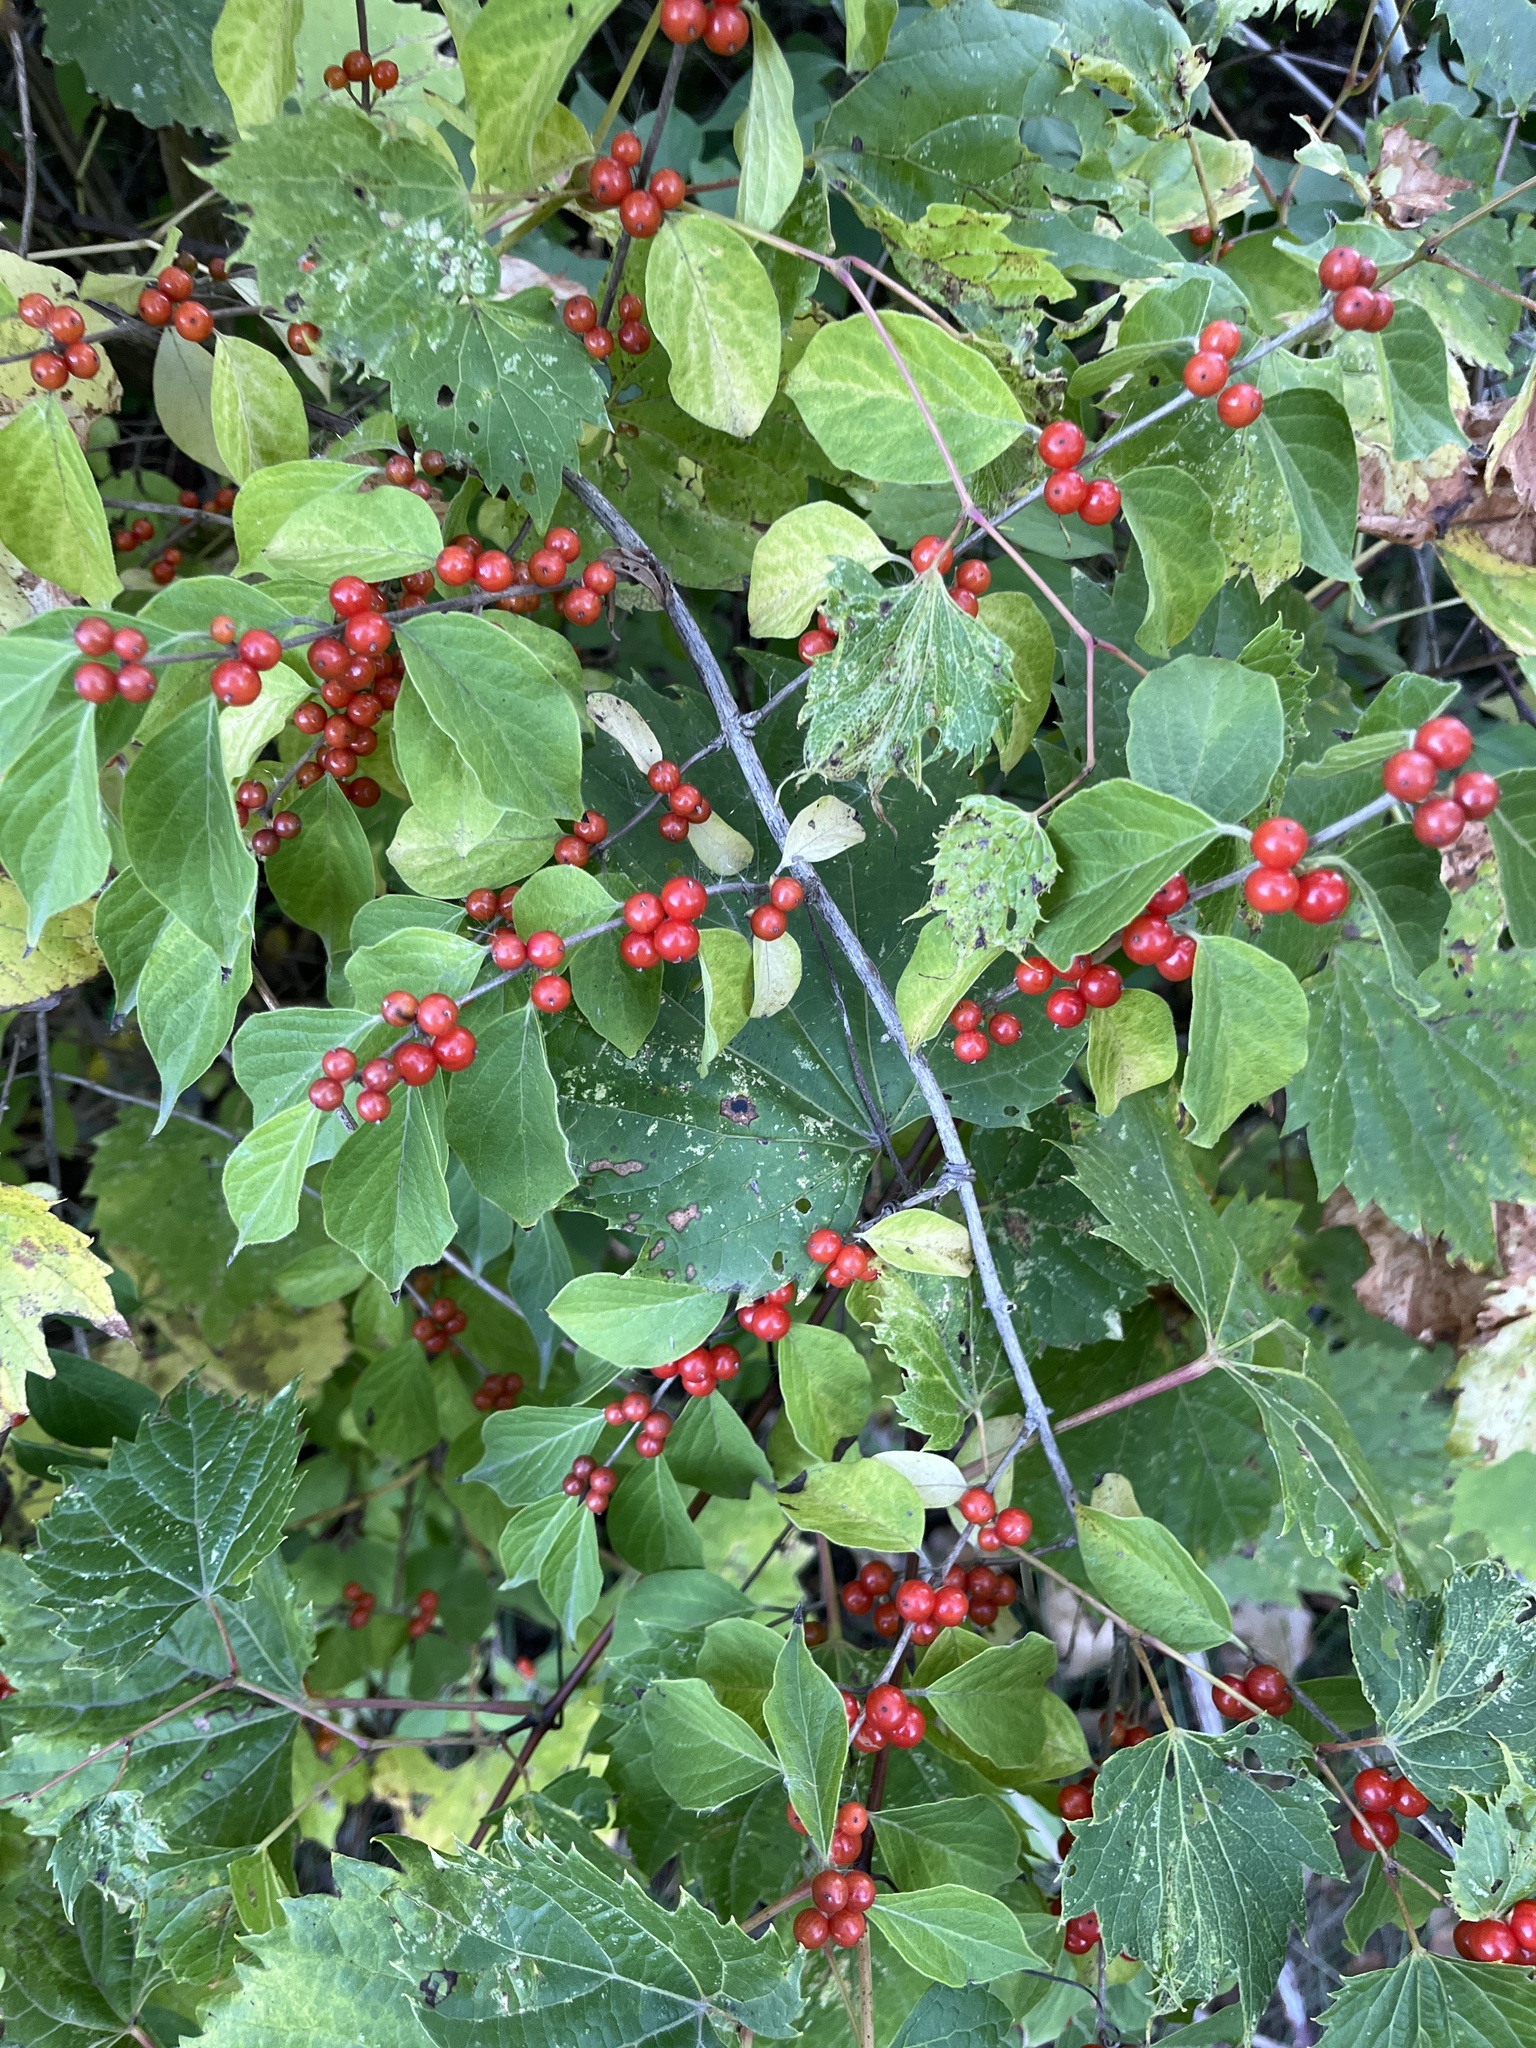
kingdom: Plantae
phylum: Tracheophyta
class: Magnoliopsida
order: Dipsacales
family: Caprifoliaceae
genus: Lonicera
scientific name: Lonicera maackii
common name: Amur honeysuckle
